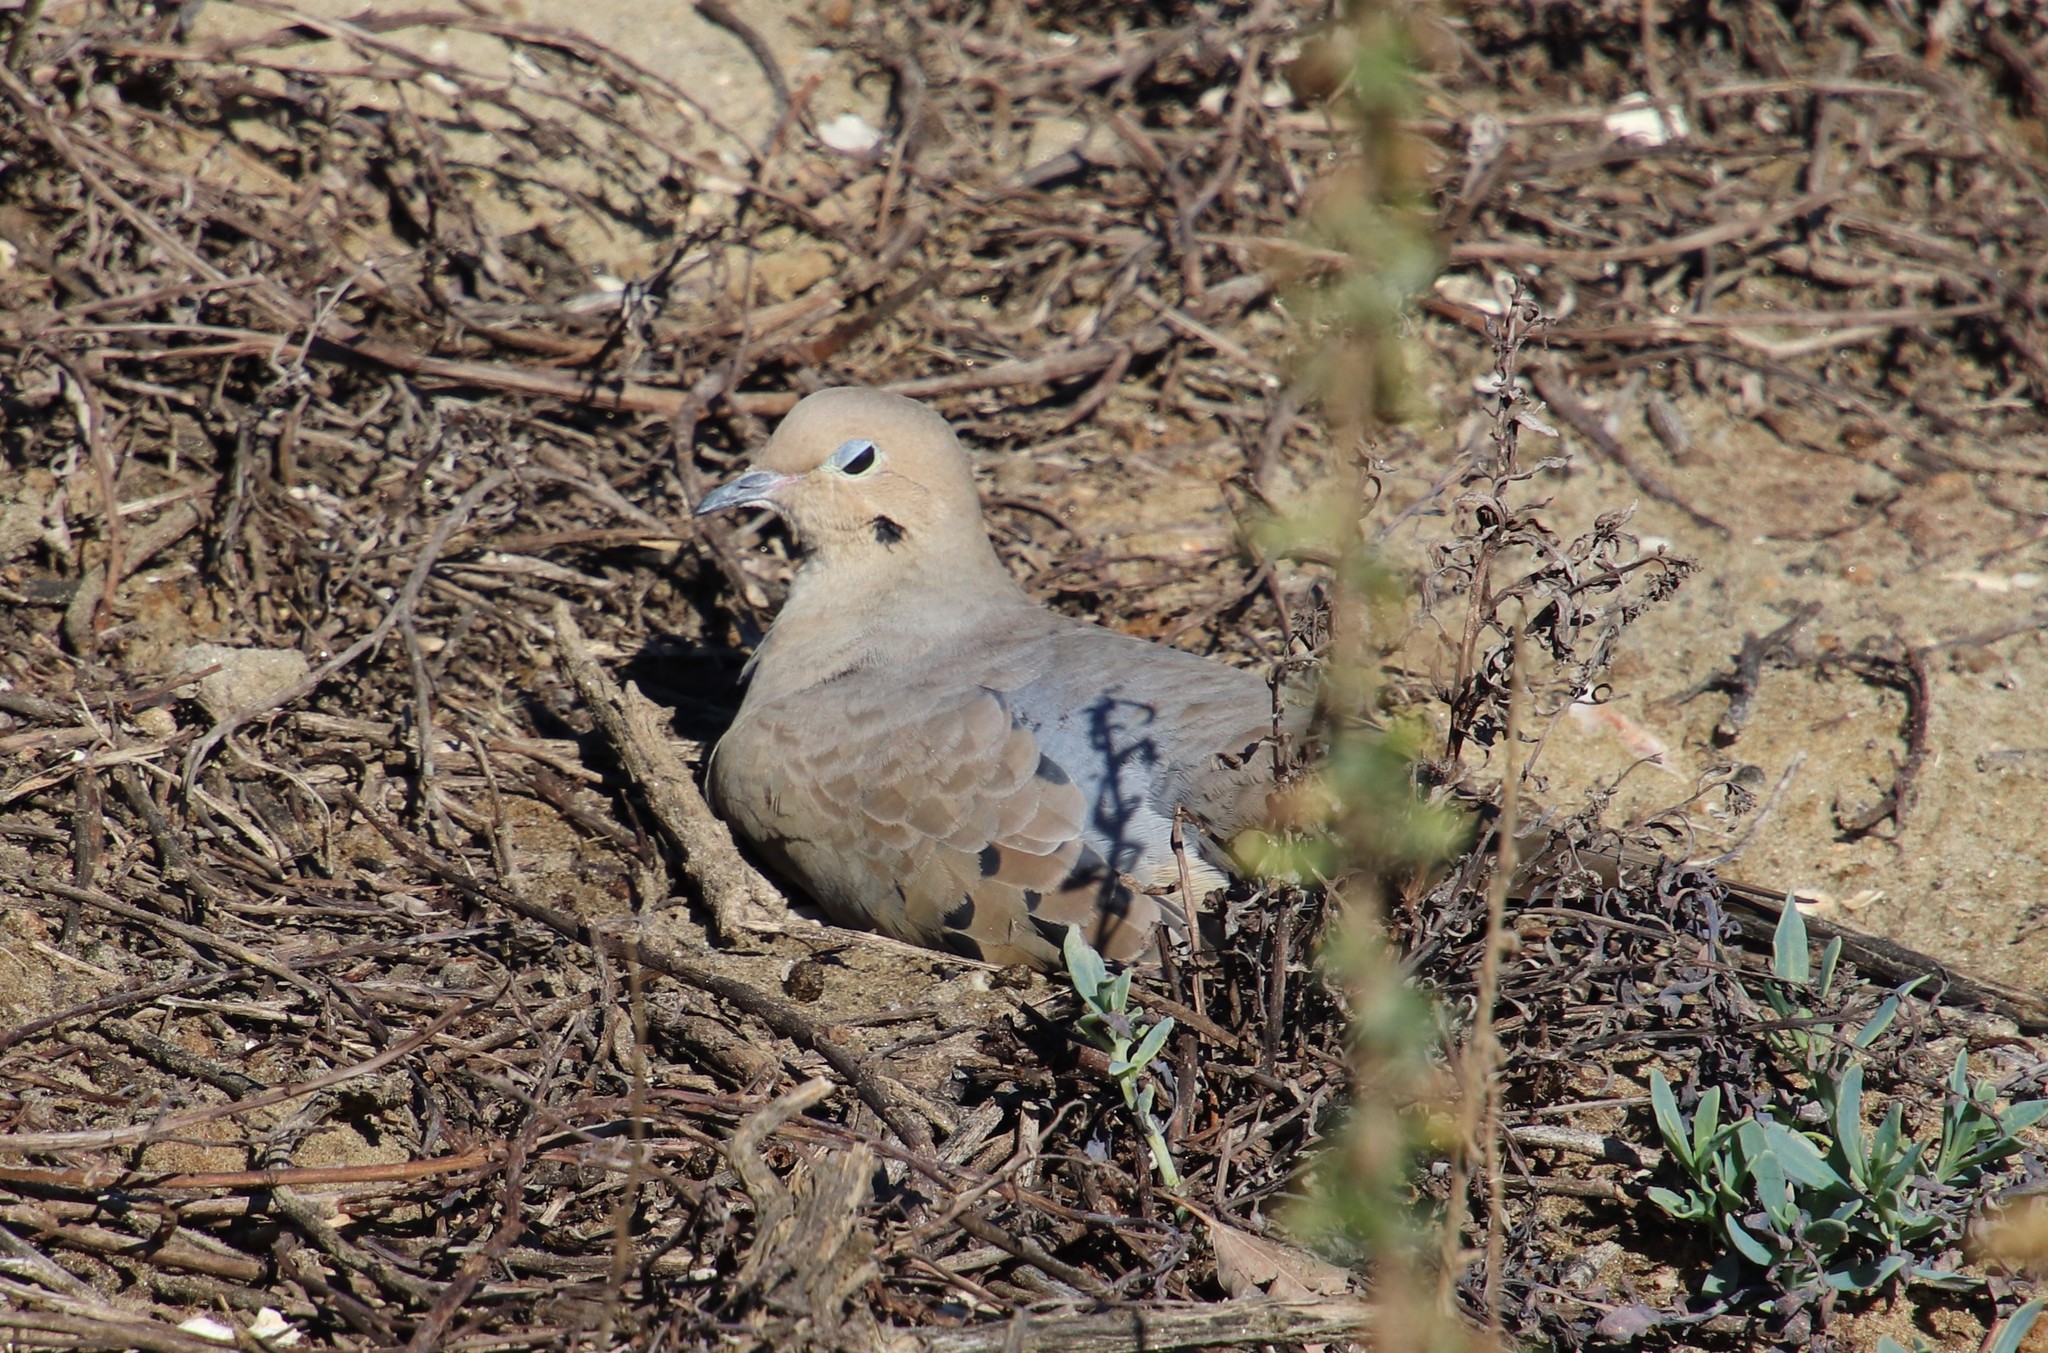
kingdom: Animalia
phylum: Chordata
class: Aves
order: Columbiformes
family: Columbidae
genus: Zenaida
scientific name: Zenaida macroura
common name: Mourning dove
